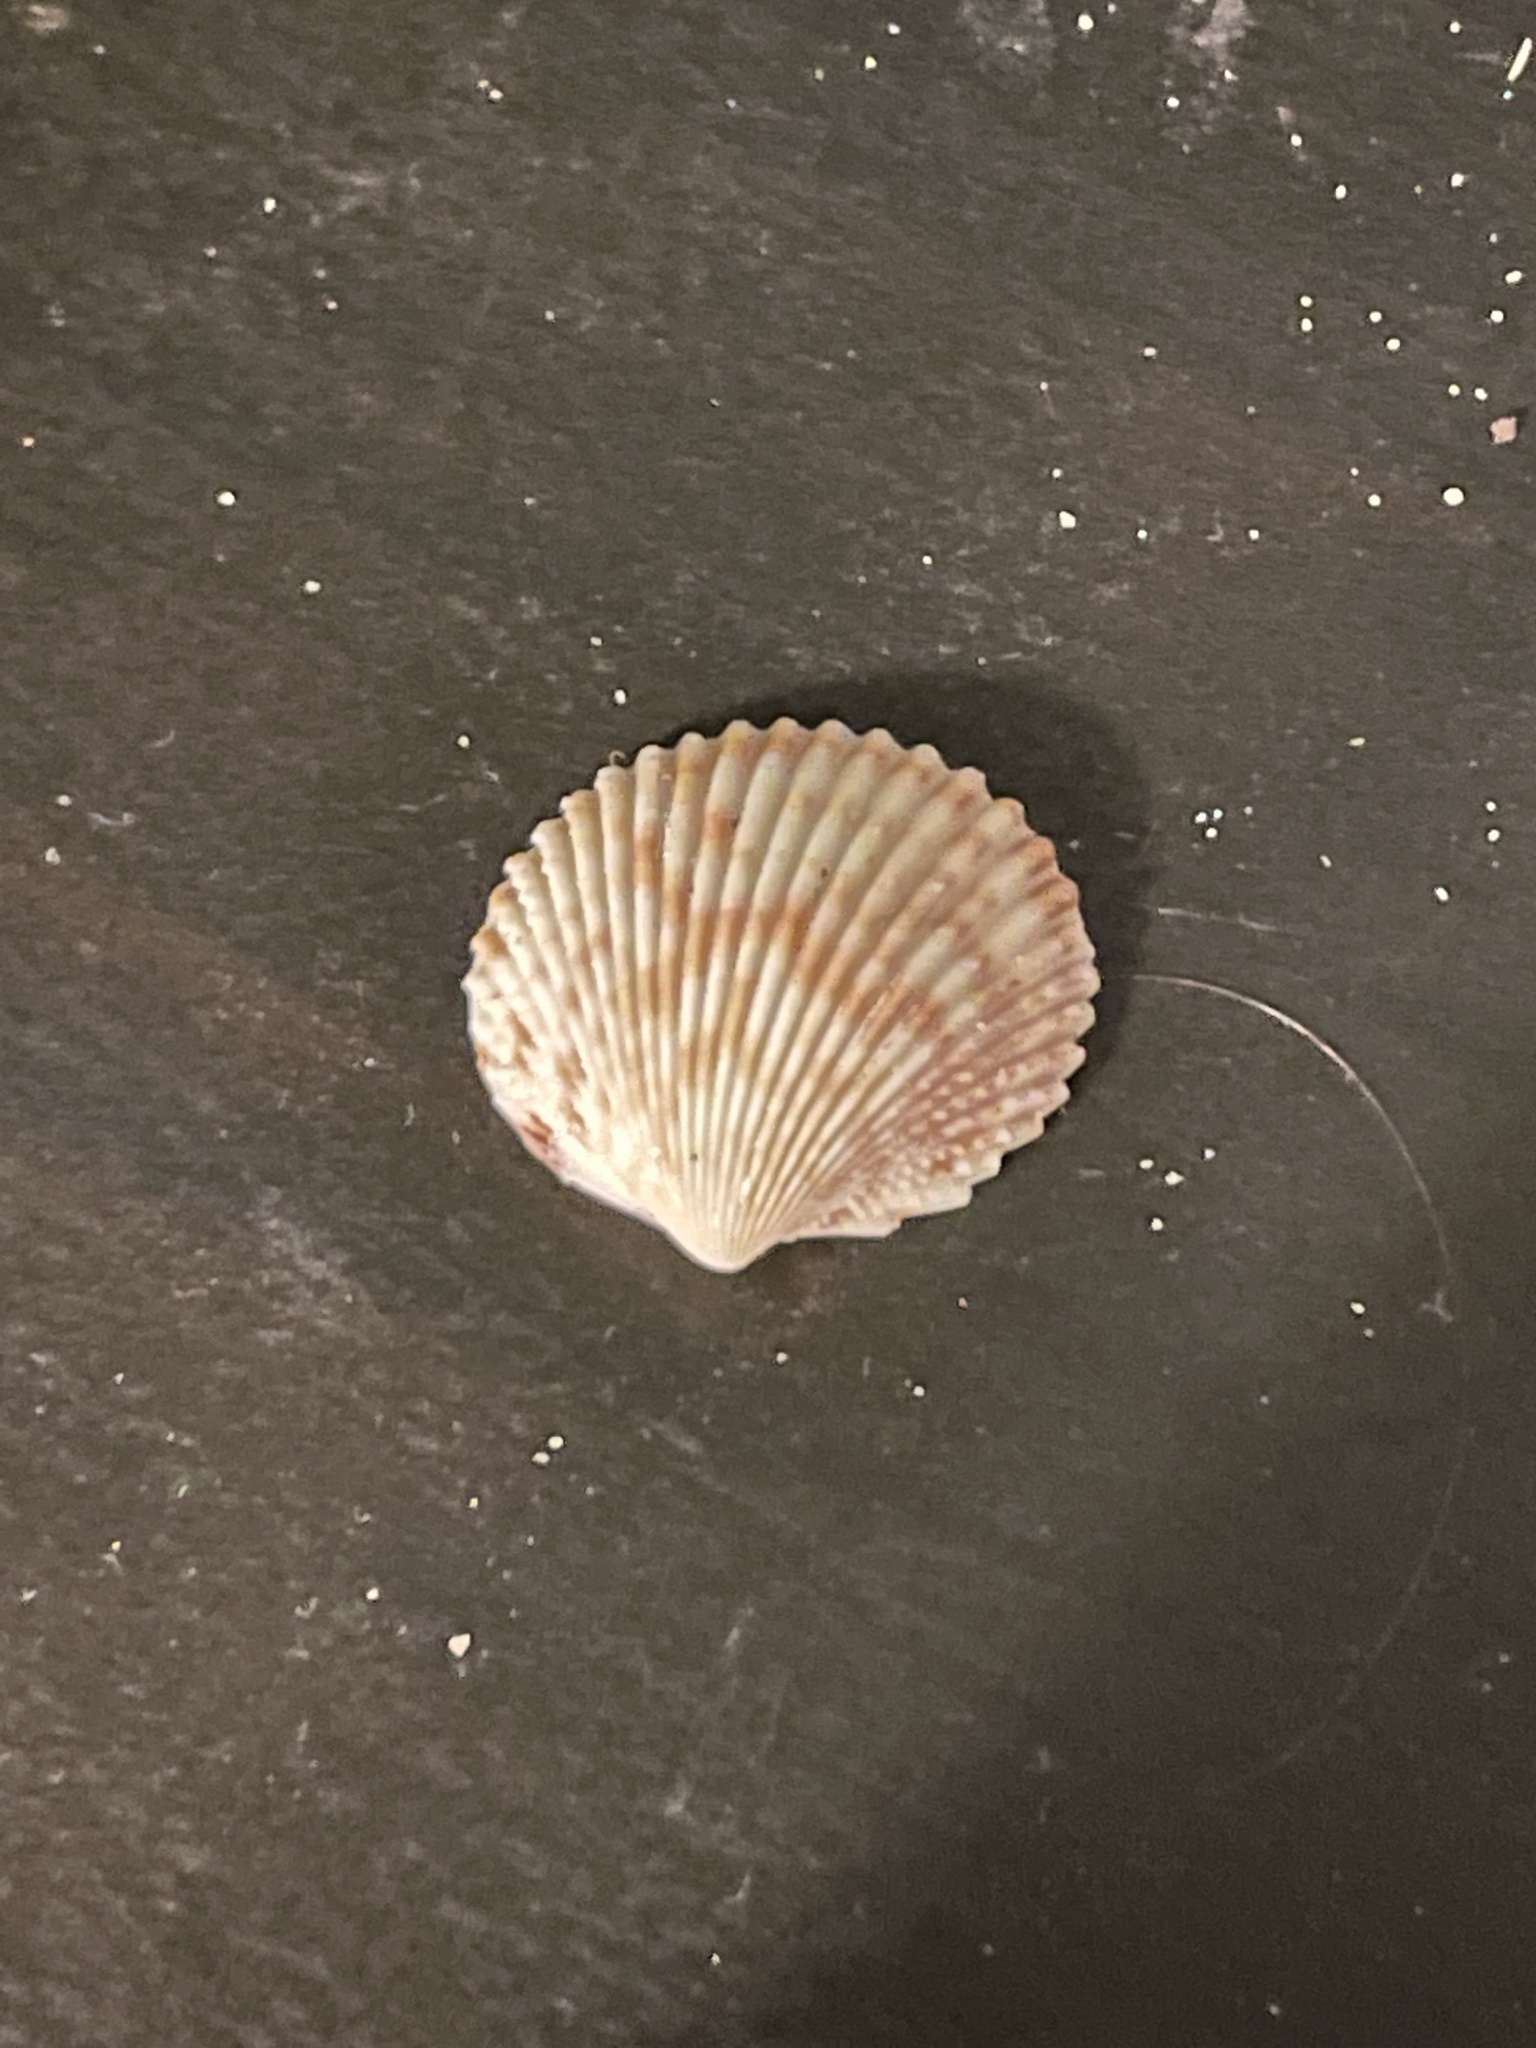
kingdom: Animalia
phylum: Mollusca
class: Bivalvia
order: Cardiida
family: Cardiidae
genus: Trachycardium
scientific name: Trachycardium egmontianum
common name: Florida pricklycockle
